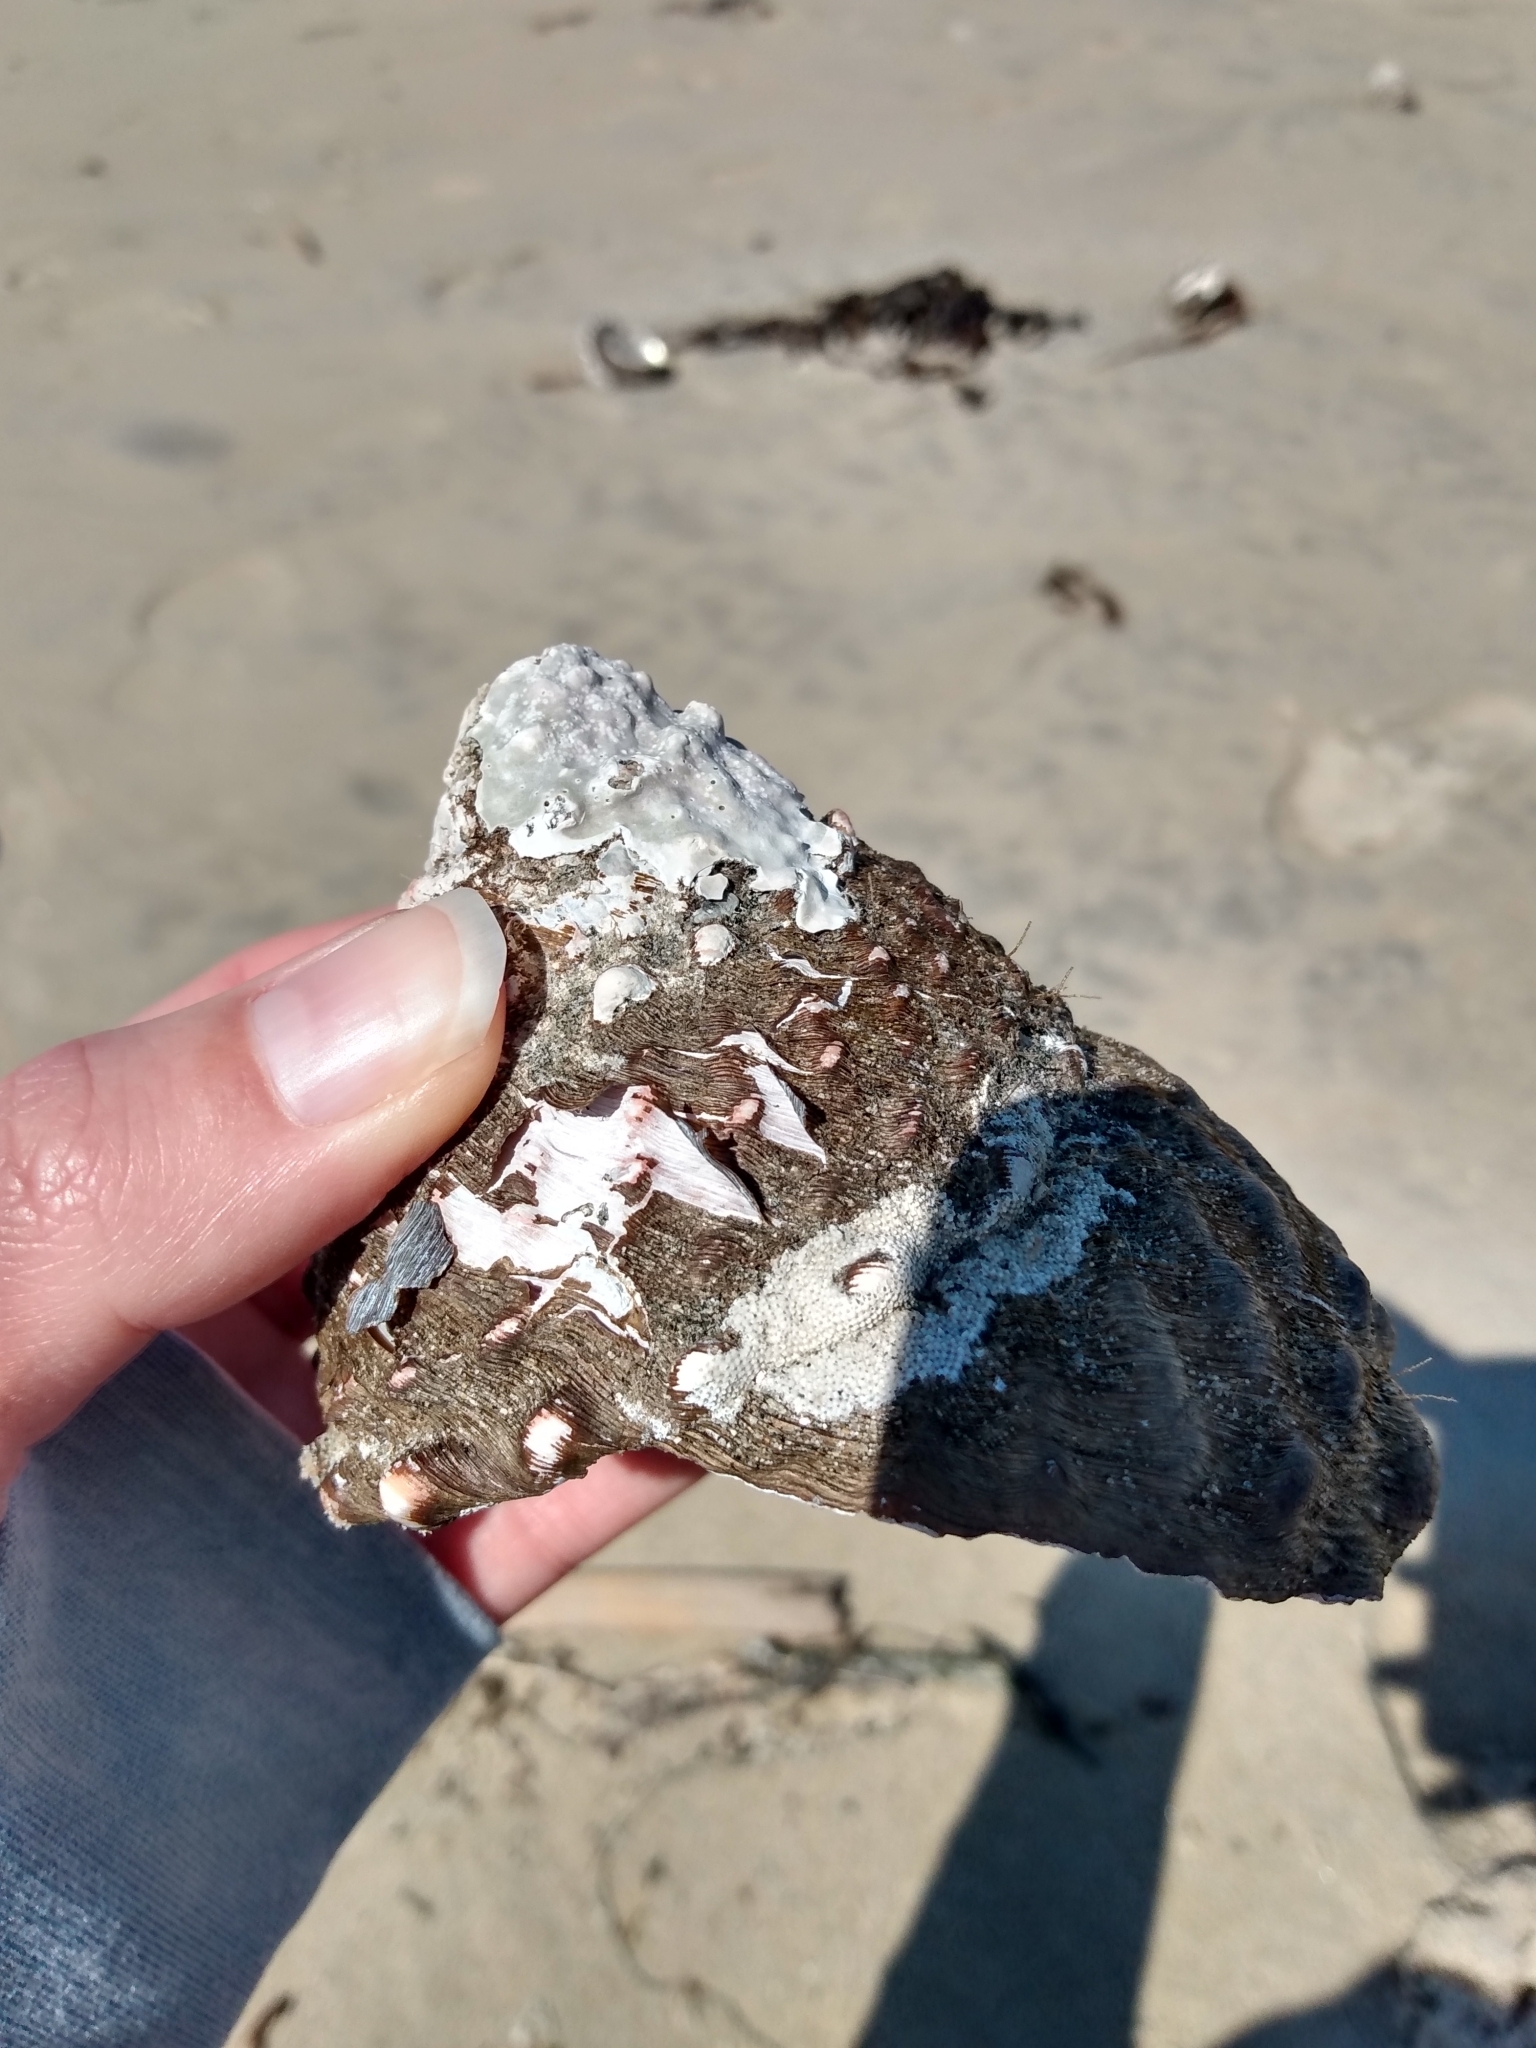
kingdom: Animalia
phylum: Mollusca
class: Gastropoda
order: Trochida
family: Turbinidae
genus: Megastraea
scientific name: Megastraea undosa
